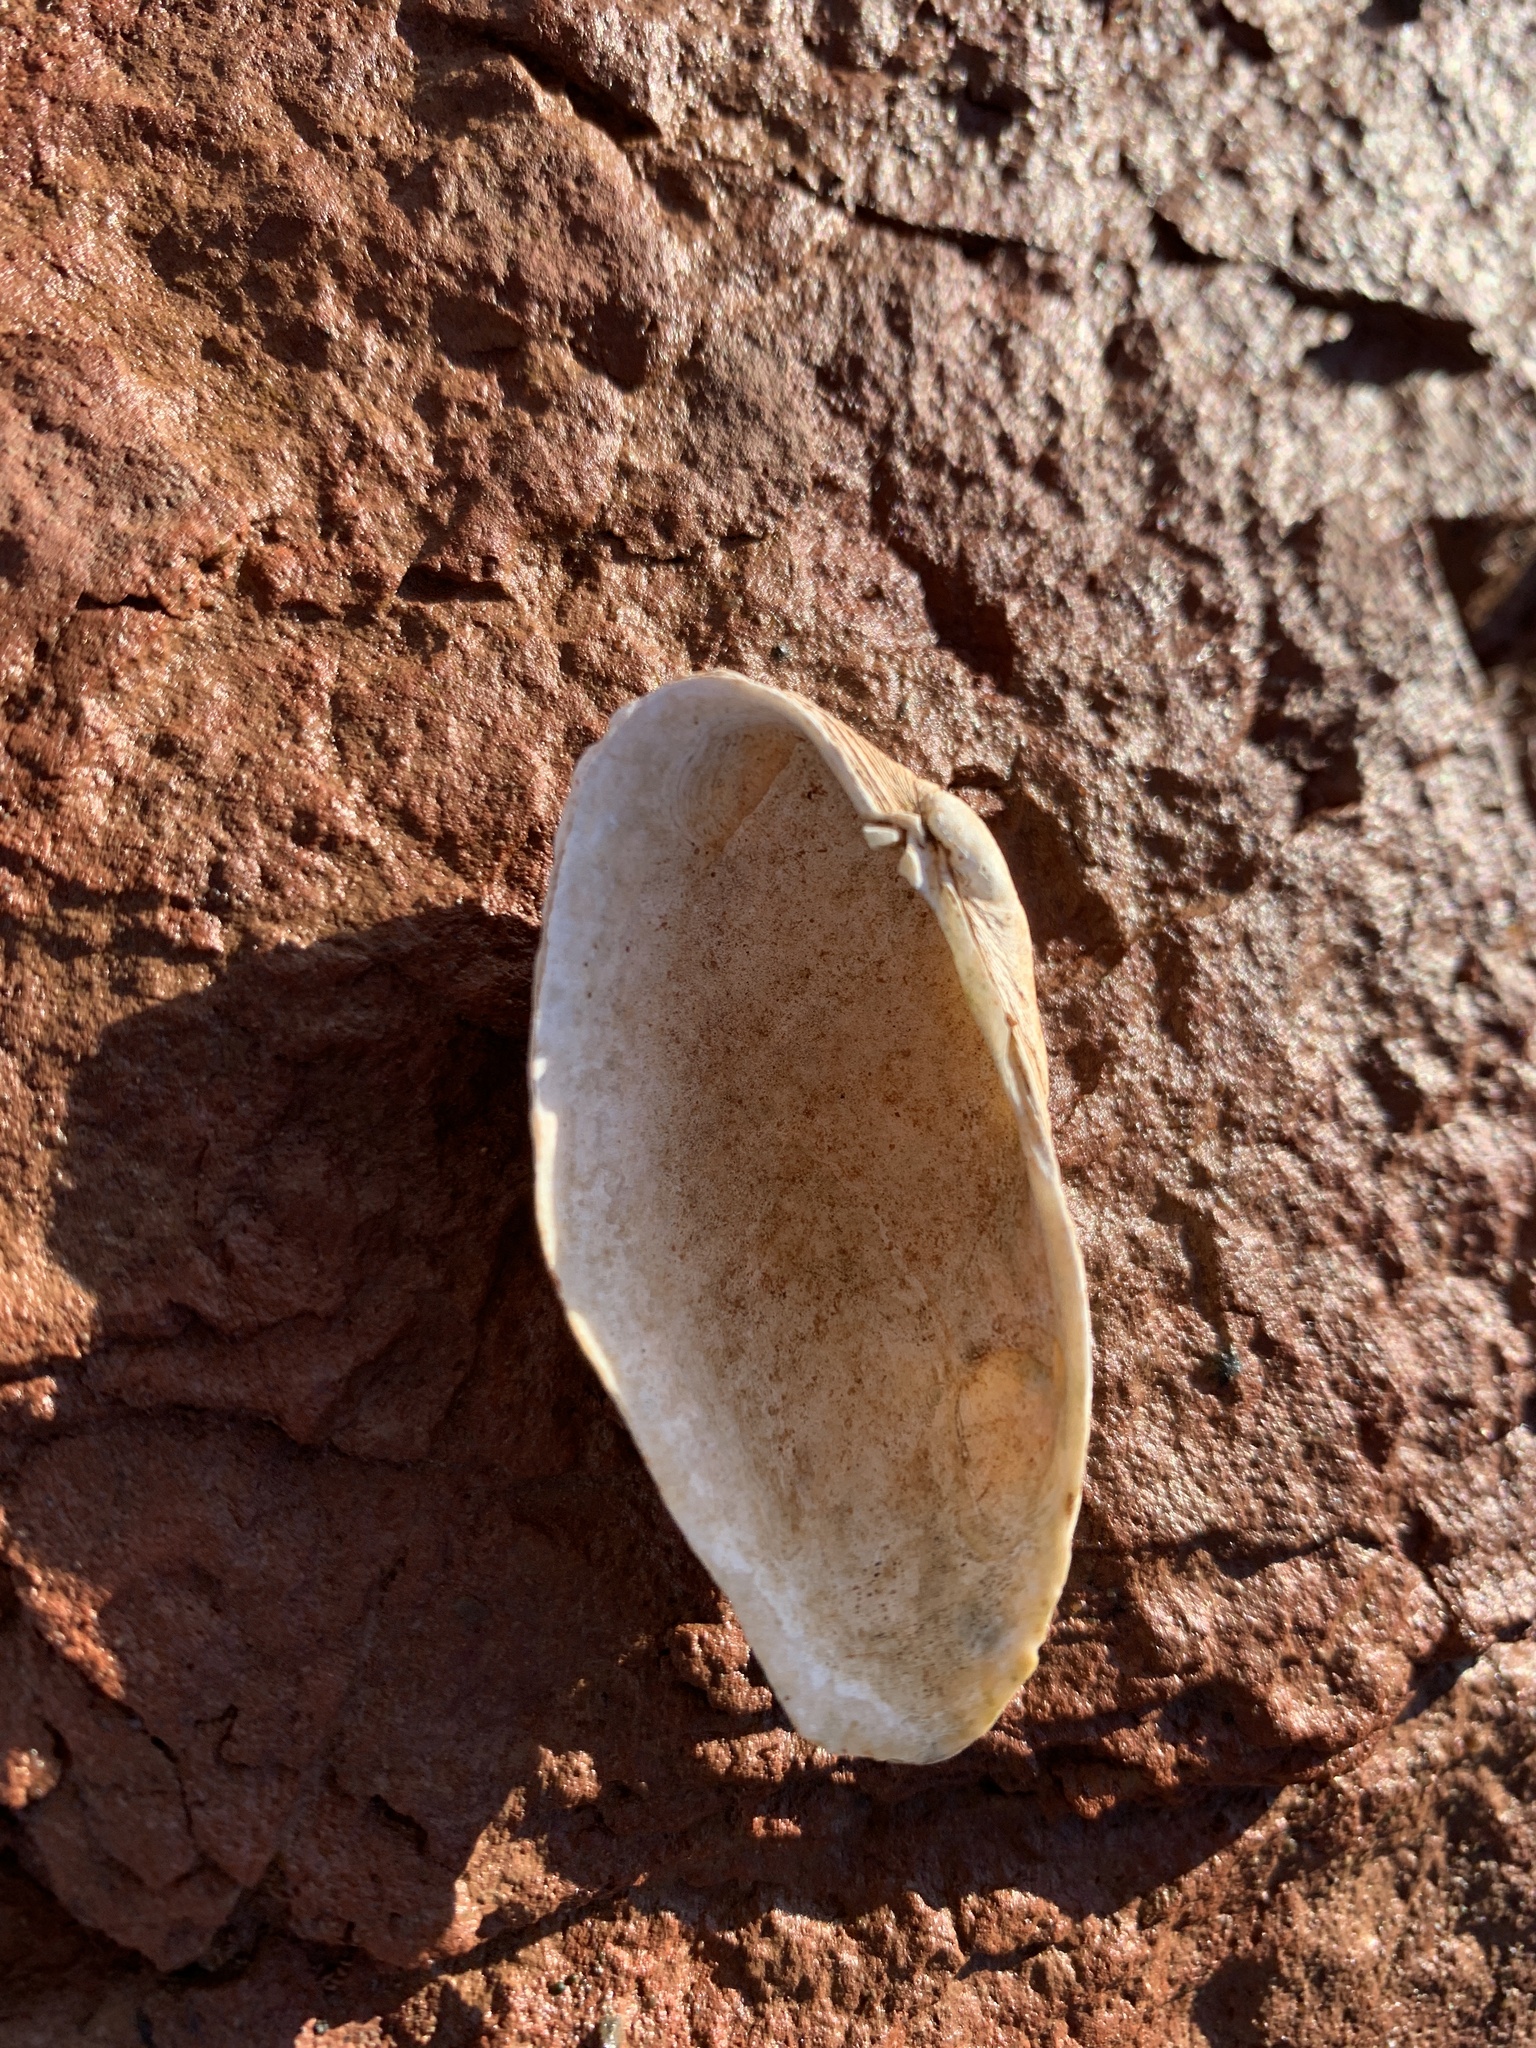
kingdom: Animalia
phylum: Mollusca
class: Bivalvia
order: Venerida
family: Veneridae
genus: Petricolaria
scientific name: Petricolaria pholadiformis
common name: American piddock
